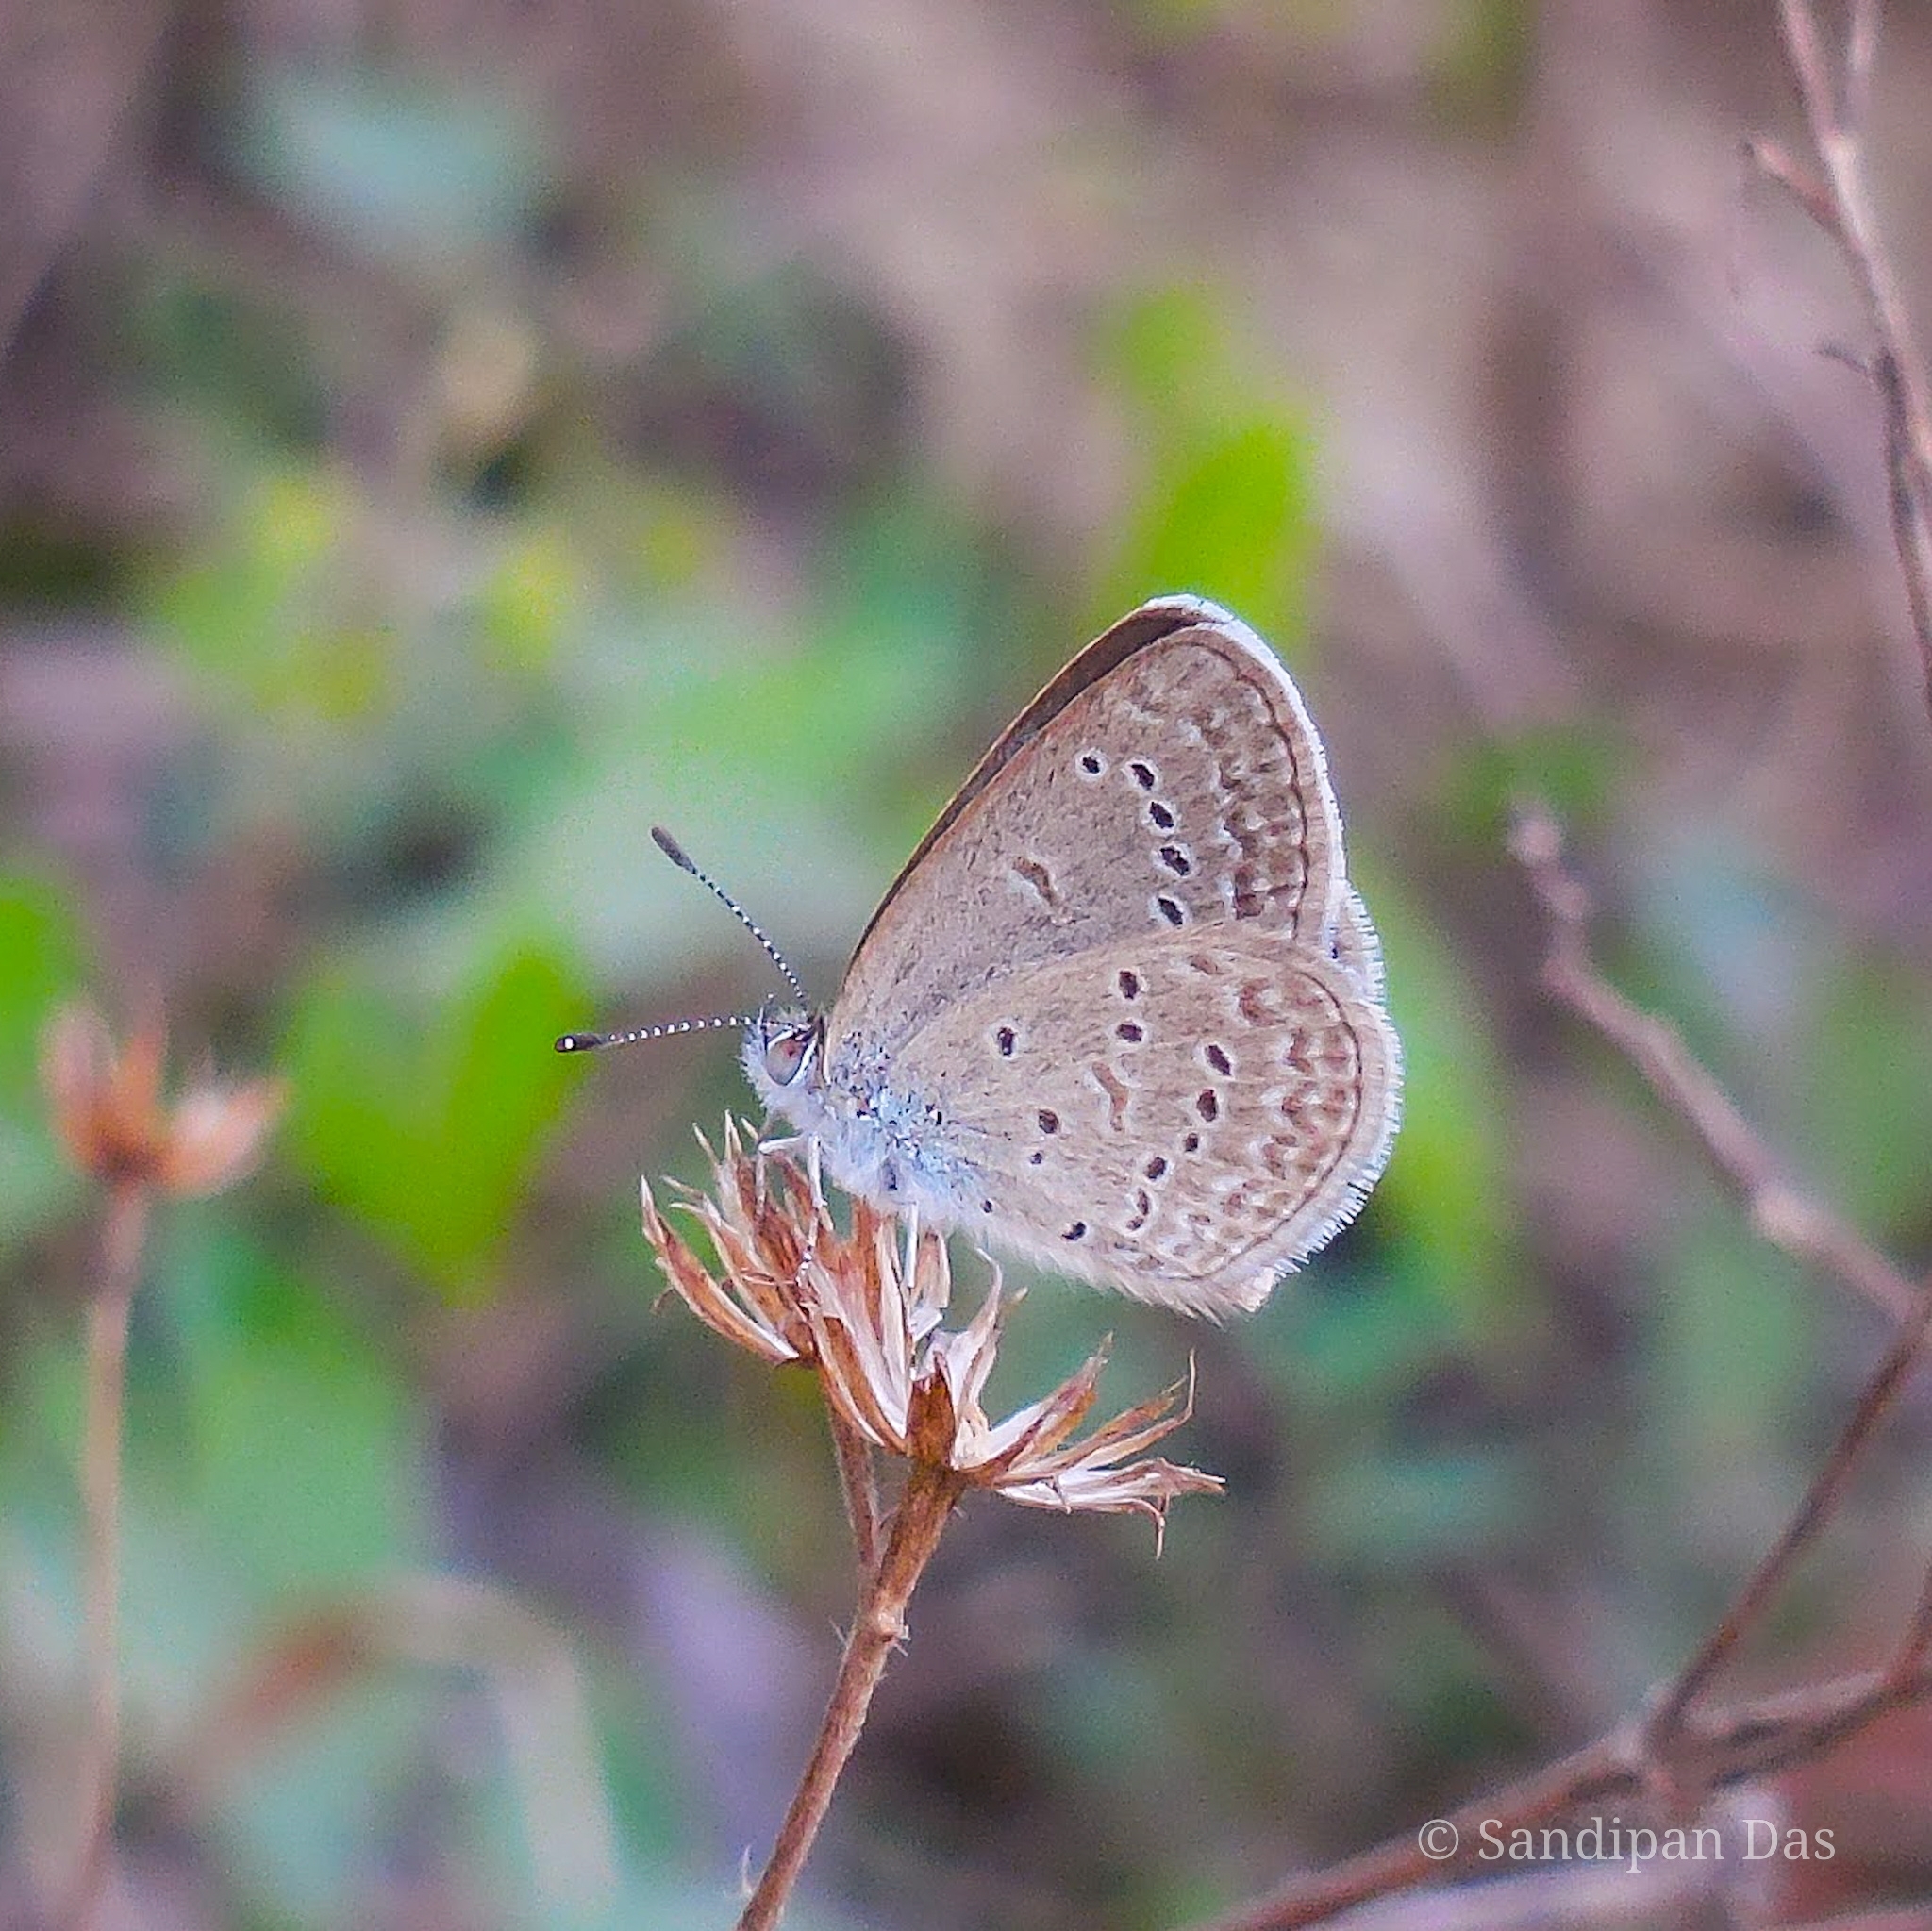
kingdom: Animalia
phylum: Arthropoda
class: Insecta
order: Lepidoptera
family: Lycaenidae
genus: Zizina
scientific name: Zizina otis
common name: Lesser grass blue
